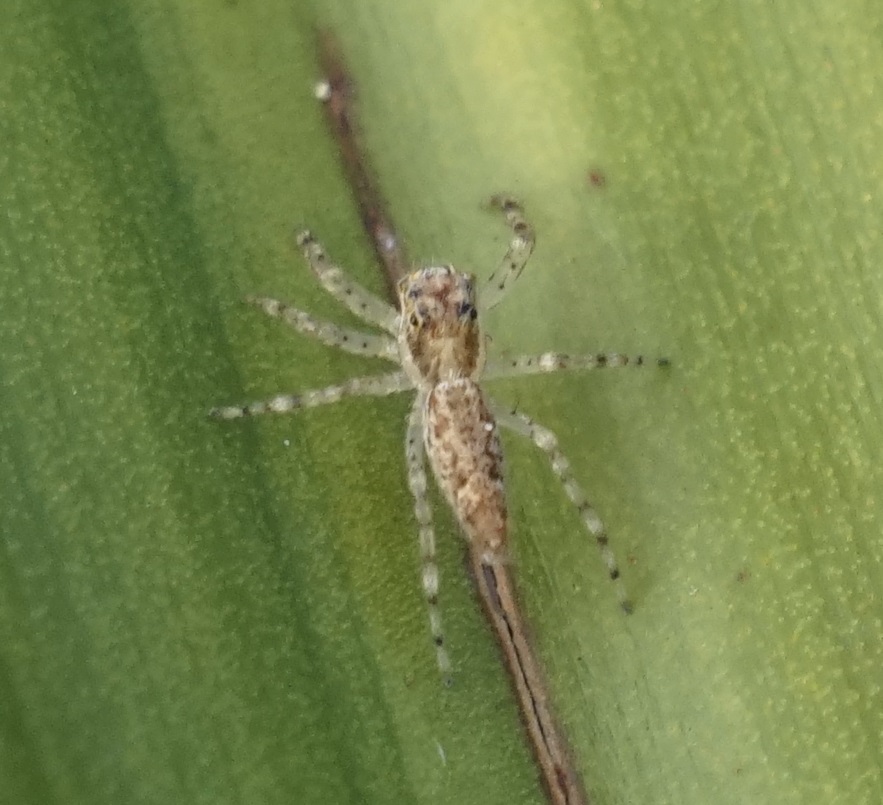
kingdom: Animalia
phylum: Arthropoda
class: Arachnida
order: Araneae
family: Salticidae
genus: Helpis
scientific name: Helpis minitabunda
